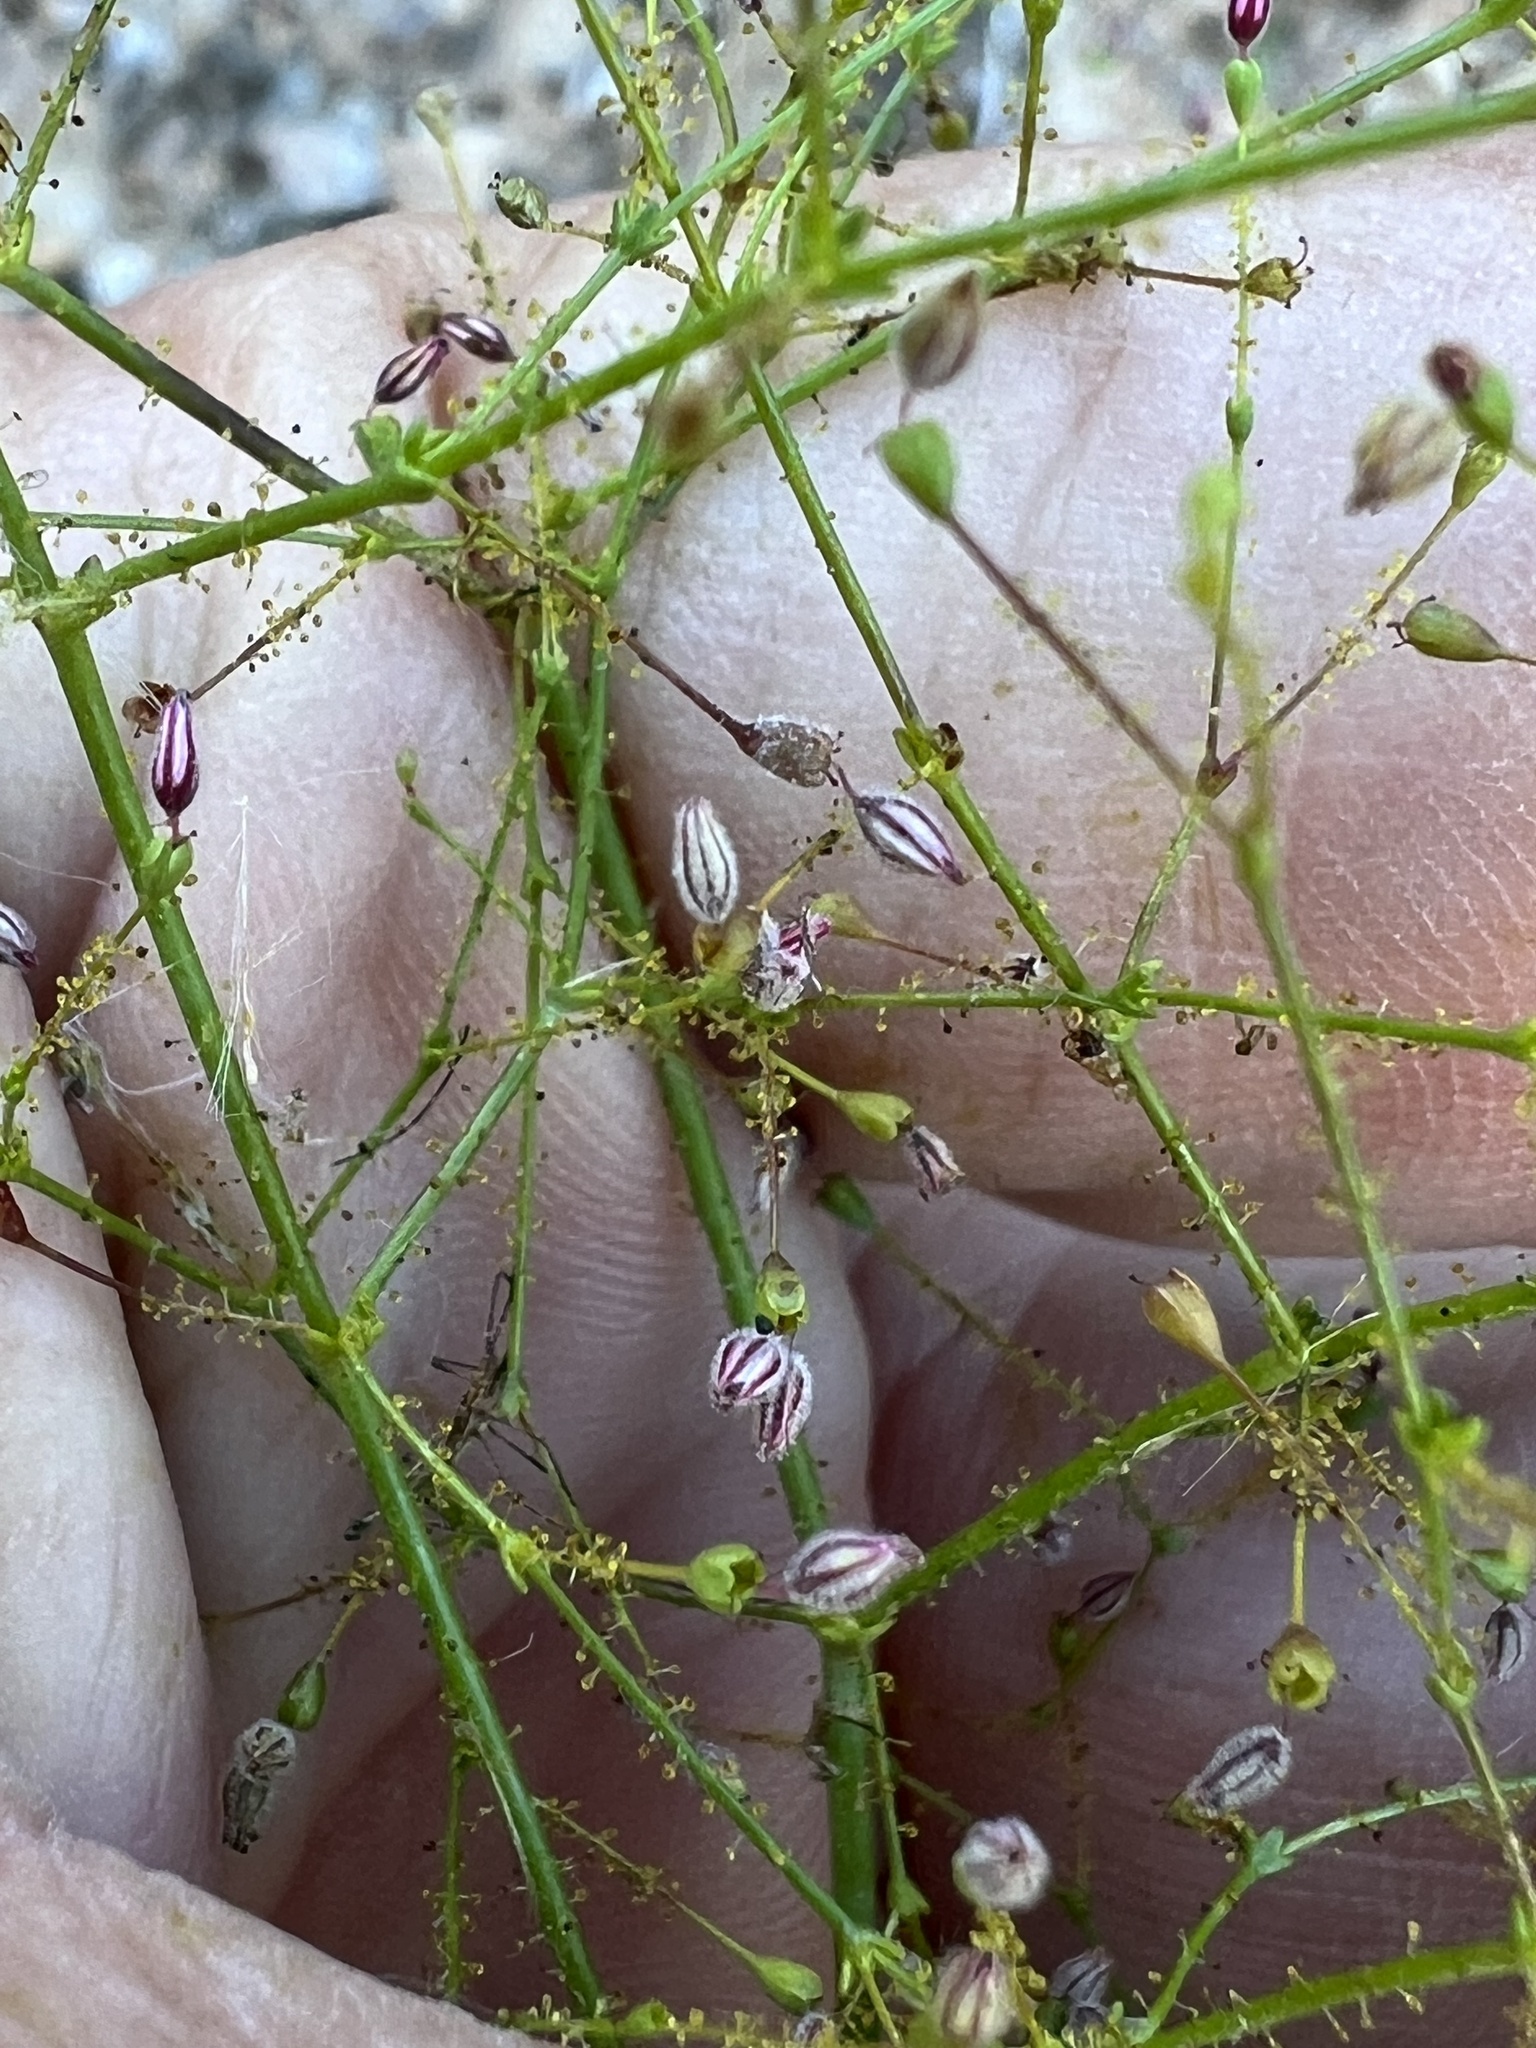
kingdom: Plantae
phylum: Tracheophyta
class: Magnoliopsida
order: Caryophyllales
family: Polygonaceae
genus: Eriogonum
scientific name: Eriogonum glandulosum
